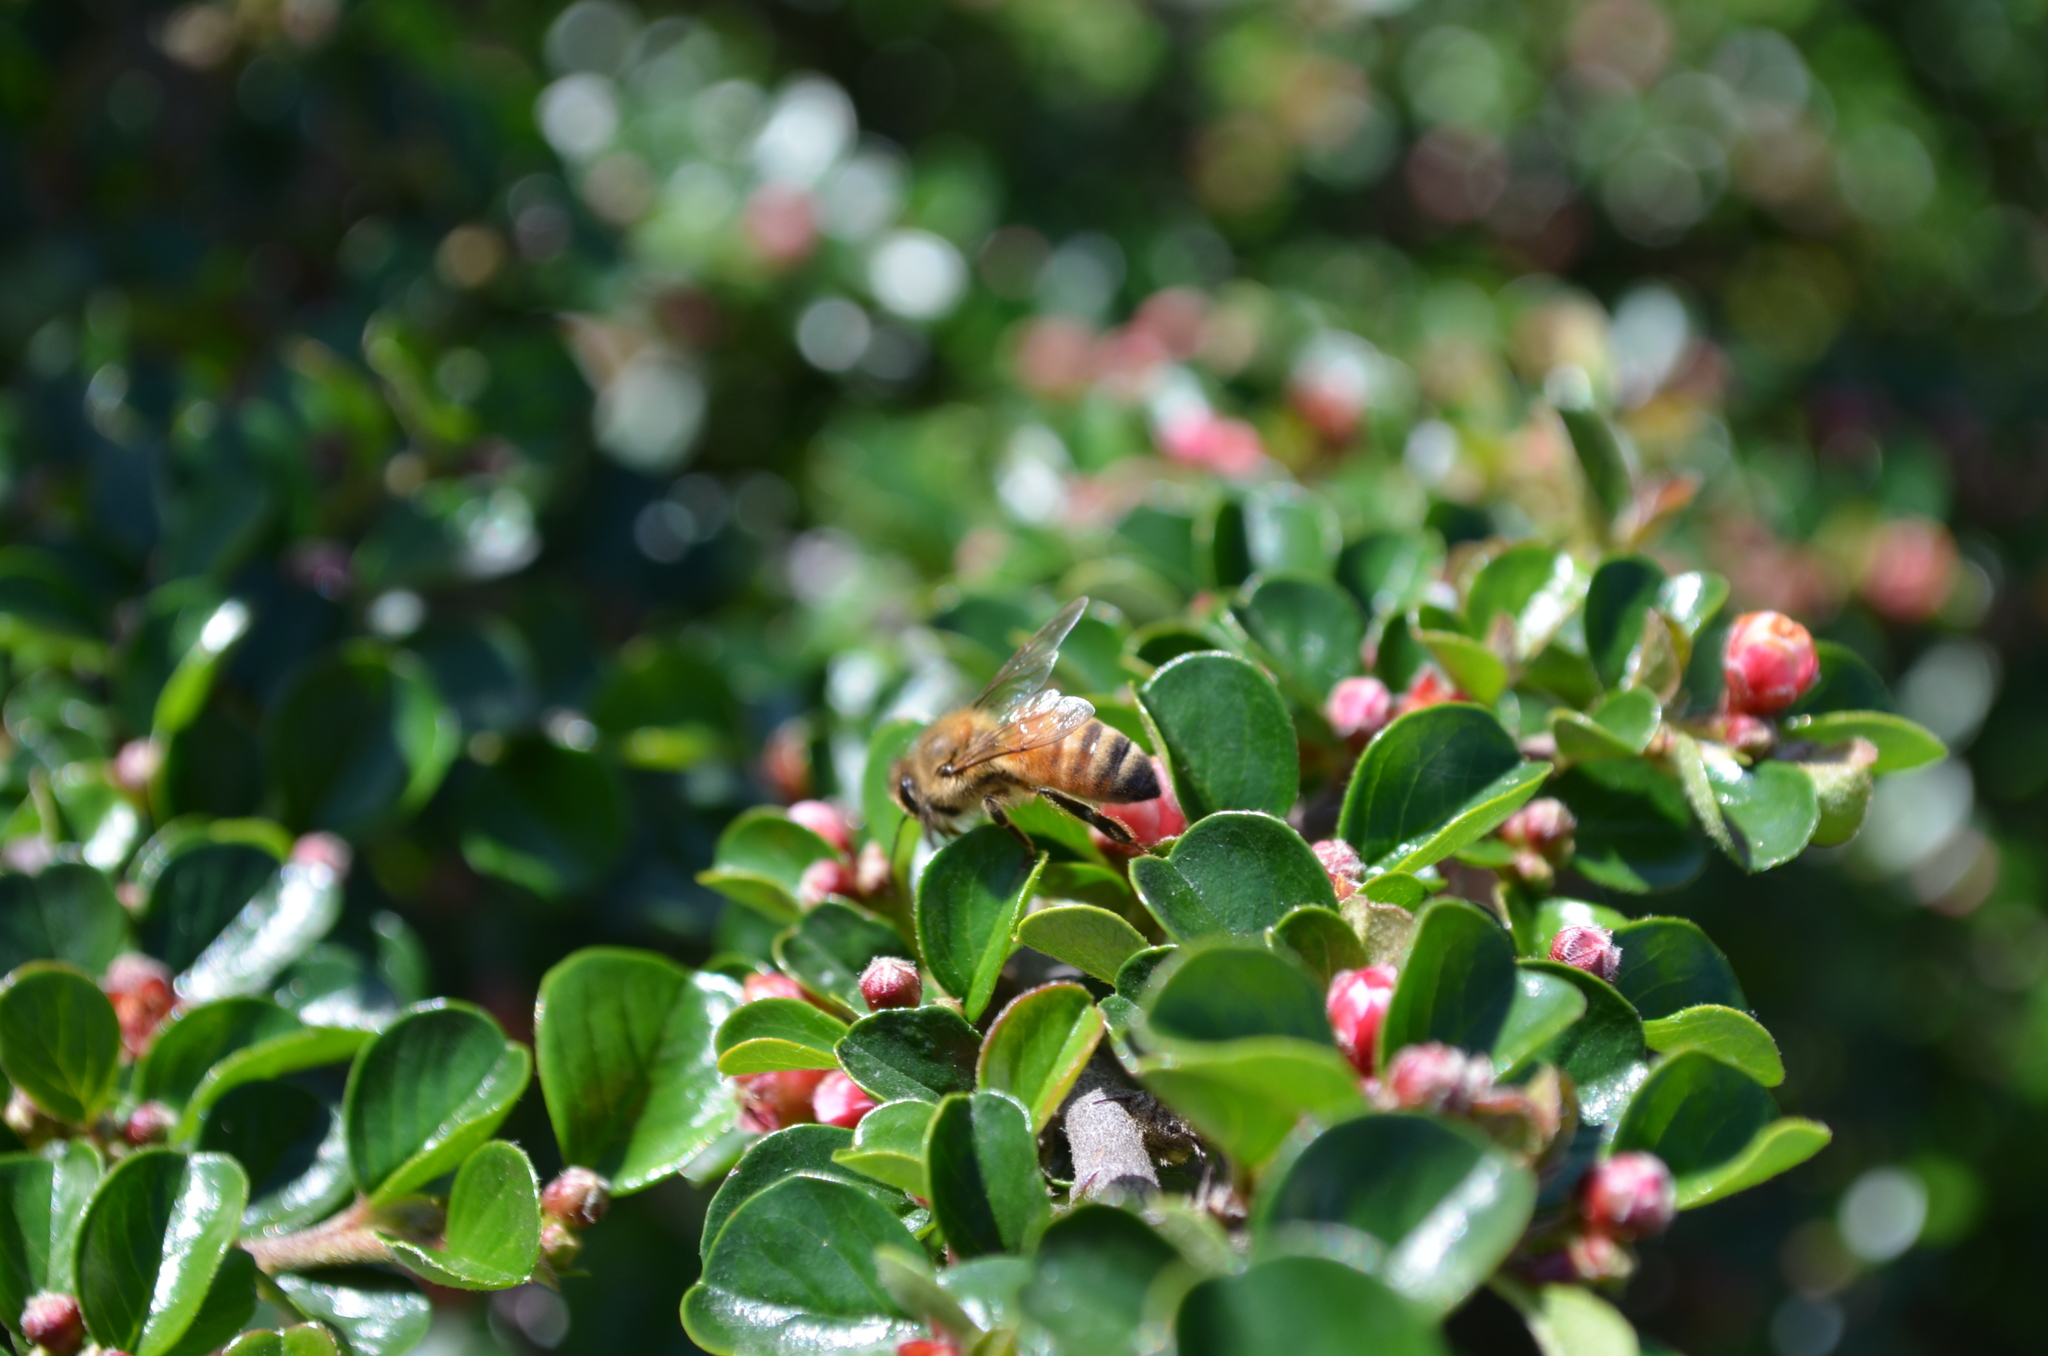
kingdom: Animalia
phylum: Arthropoda
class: Insecta
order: Hymenoptera
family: Apidae
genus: Apis
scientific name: Apis mellifera
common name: Honey bee
